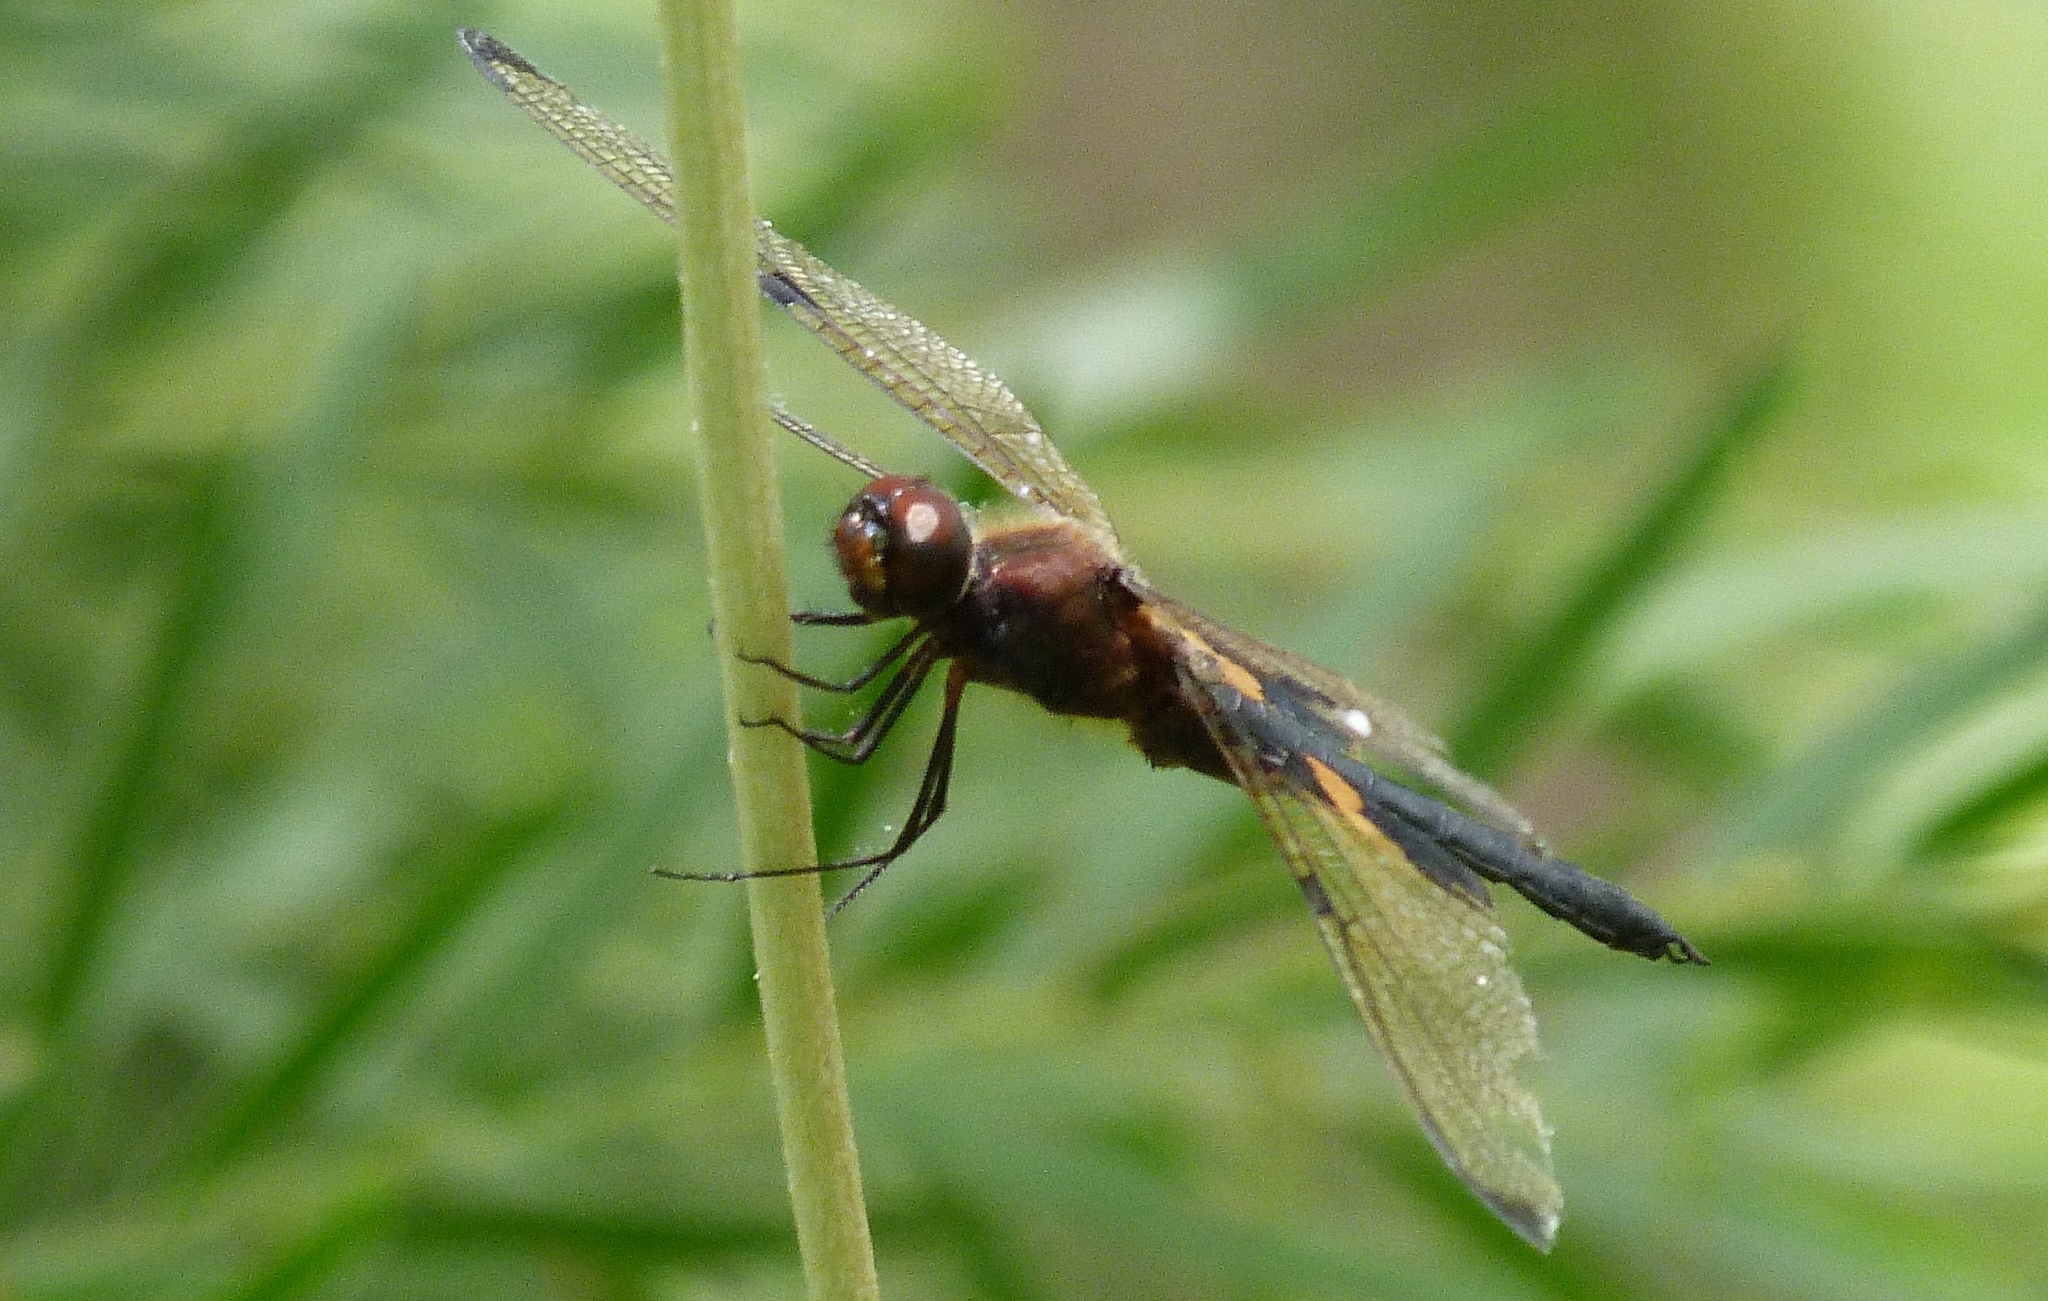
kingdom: Animalia
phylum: Arthropoda
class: Insecta
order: Odonata
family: Libellulidae
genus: Rhyothemis
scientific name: Rhyothemis phyllis
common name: Yellow-barred flutterer
